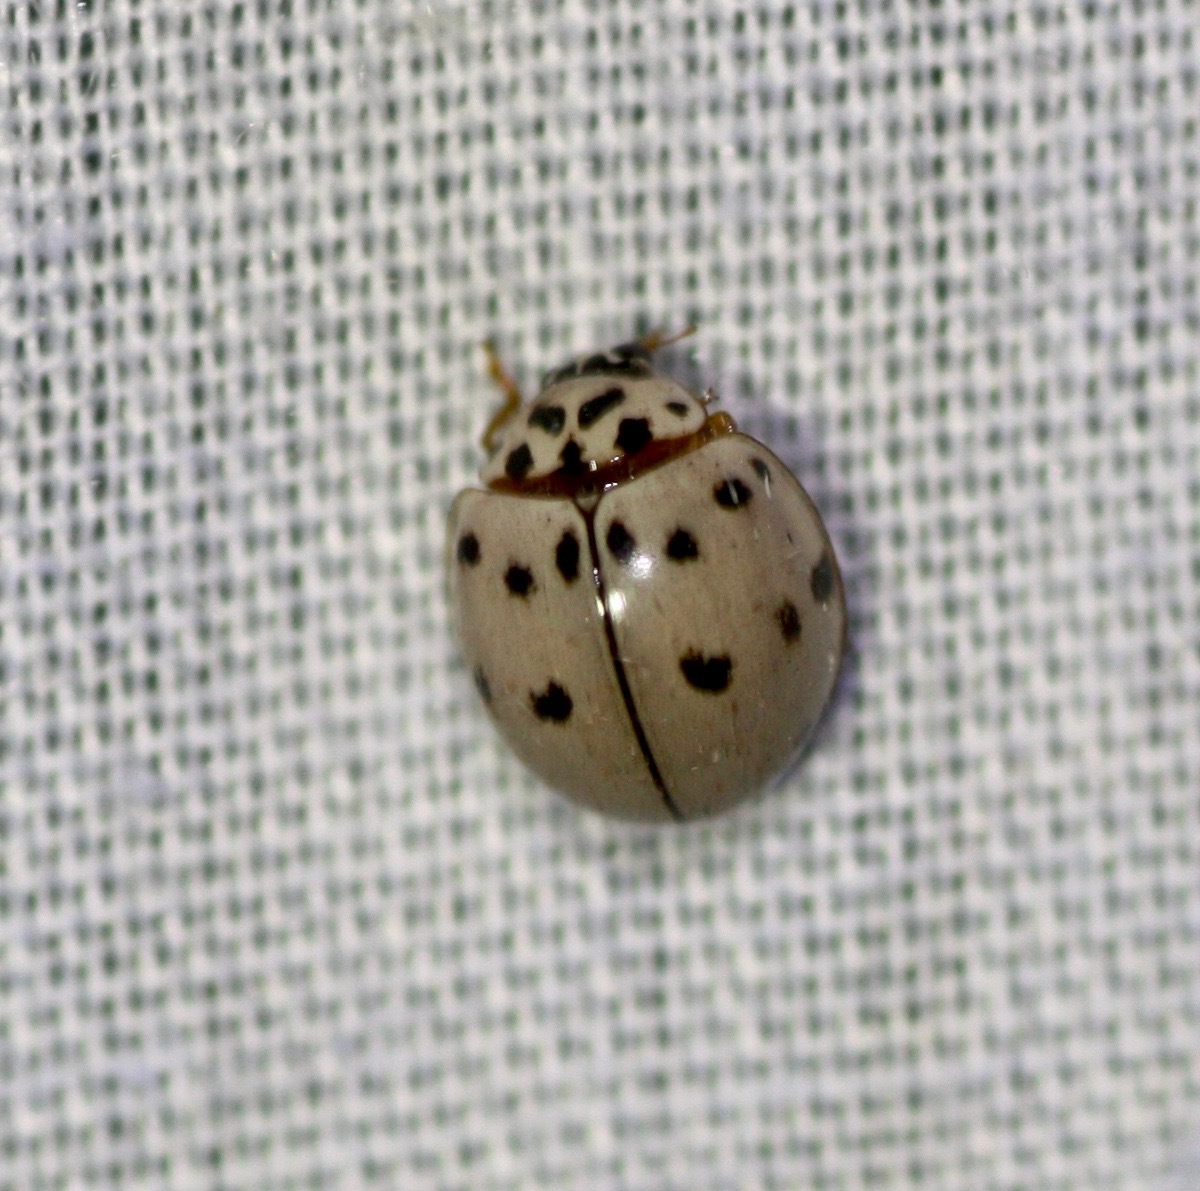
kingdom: Animalia
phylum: Arthropoda
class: Insecta
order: Coleoptera
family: Coccinellidae
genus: Olla
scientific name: Olla v-nigrum
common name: Ashy gray lady beetle
